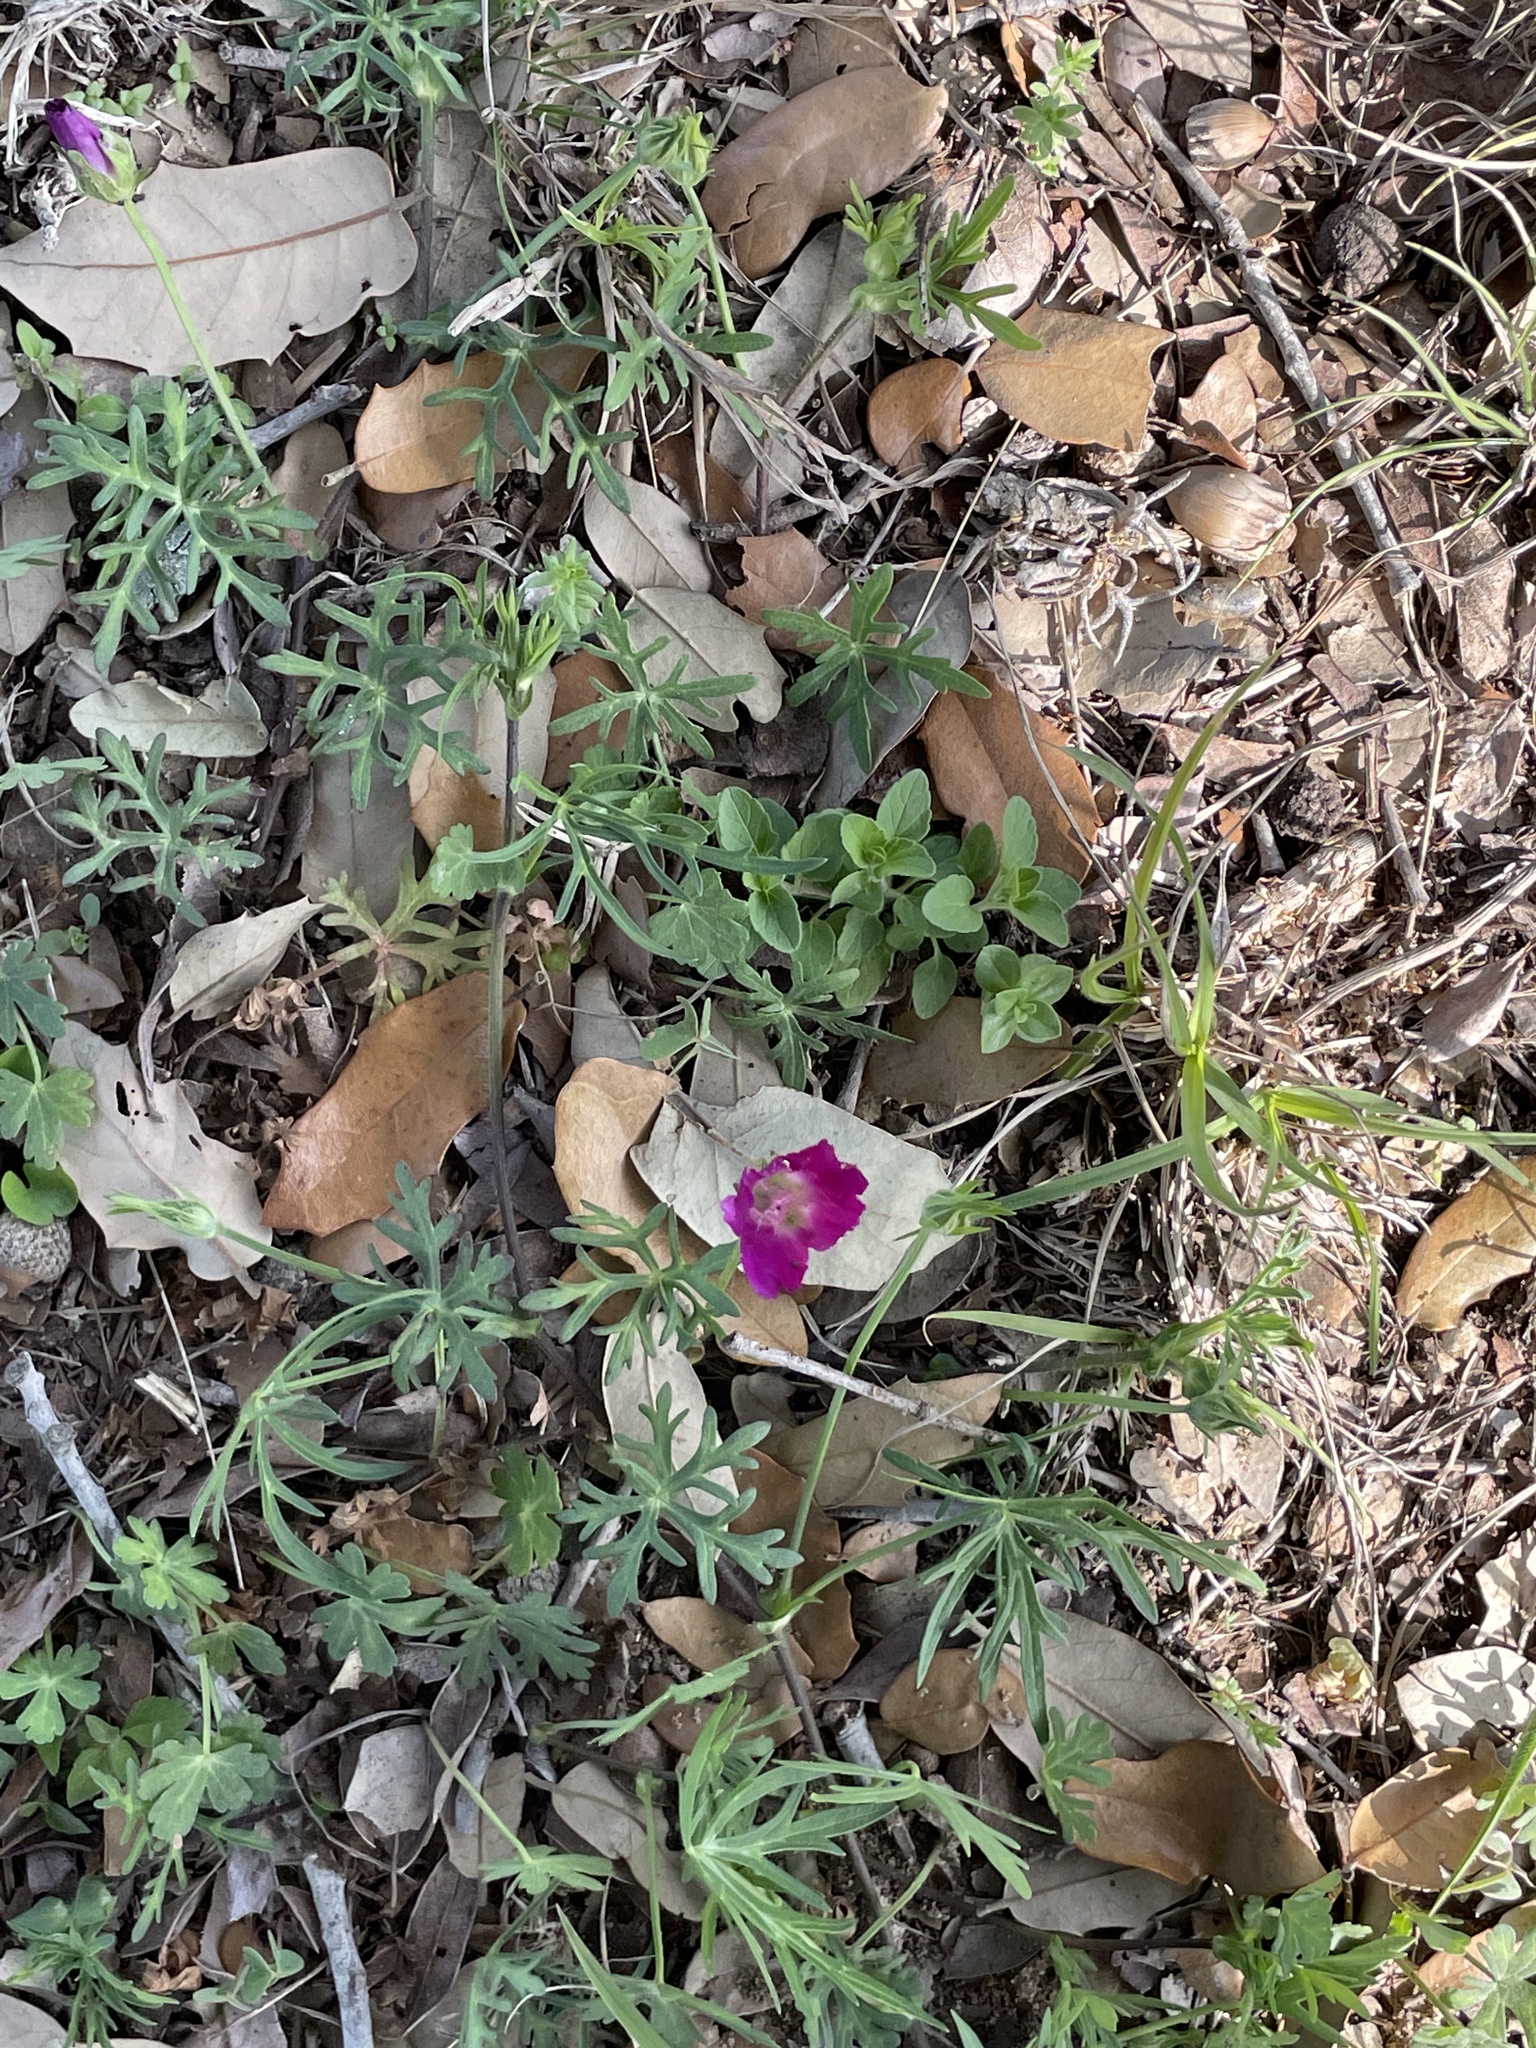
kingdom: Plantae
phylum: Tracheophyta
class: Magnoliopsida
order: Malvales
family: Malvaceae
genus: Callirhoe
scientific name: Callirhoe involucrata
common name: Purple poppy-mallow
